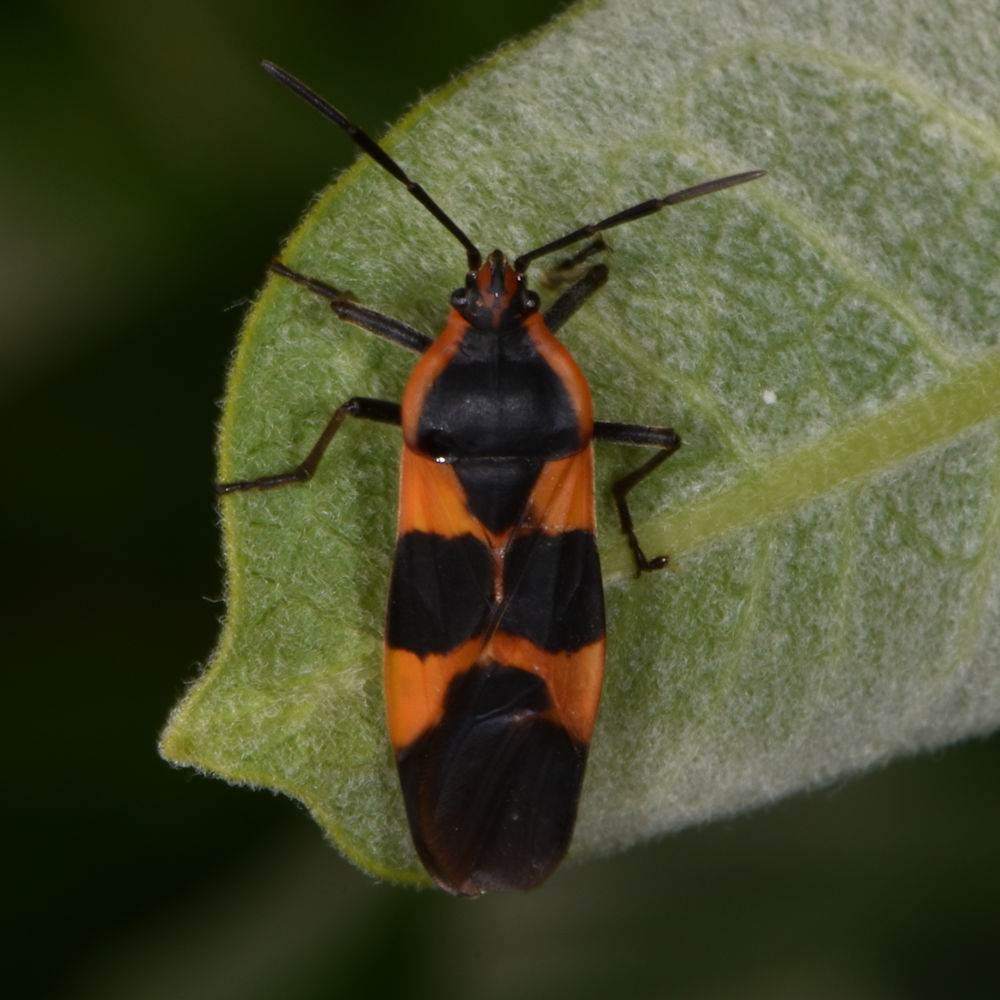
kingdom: Animalia
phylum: Arthropoda
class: Insecta
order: Hemiptera
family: Lygaeidae
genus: Oncopeltus
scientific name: Oncopeltus fasciatus
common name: Large milkweed bug
